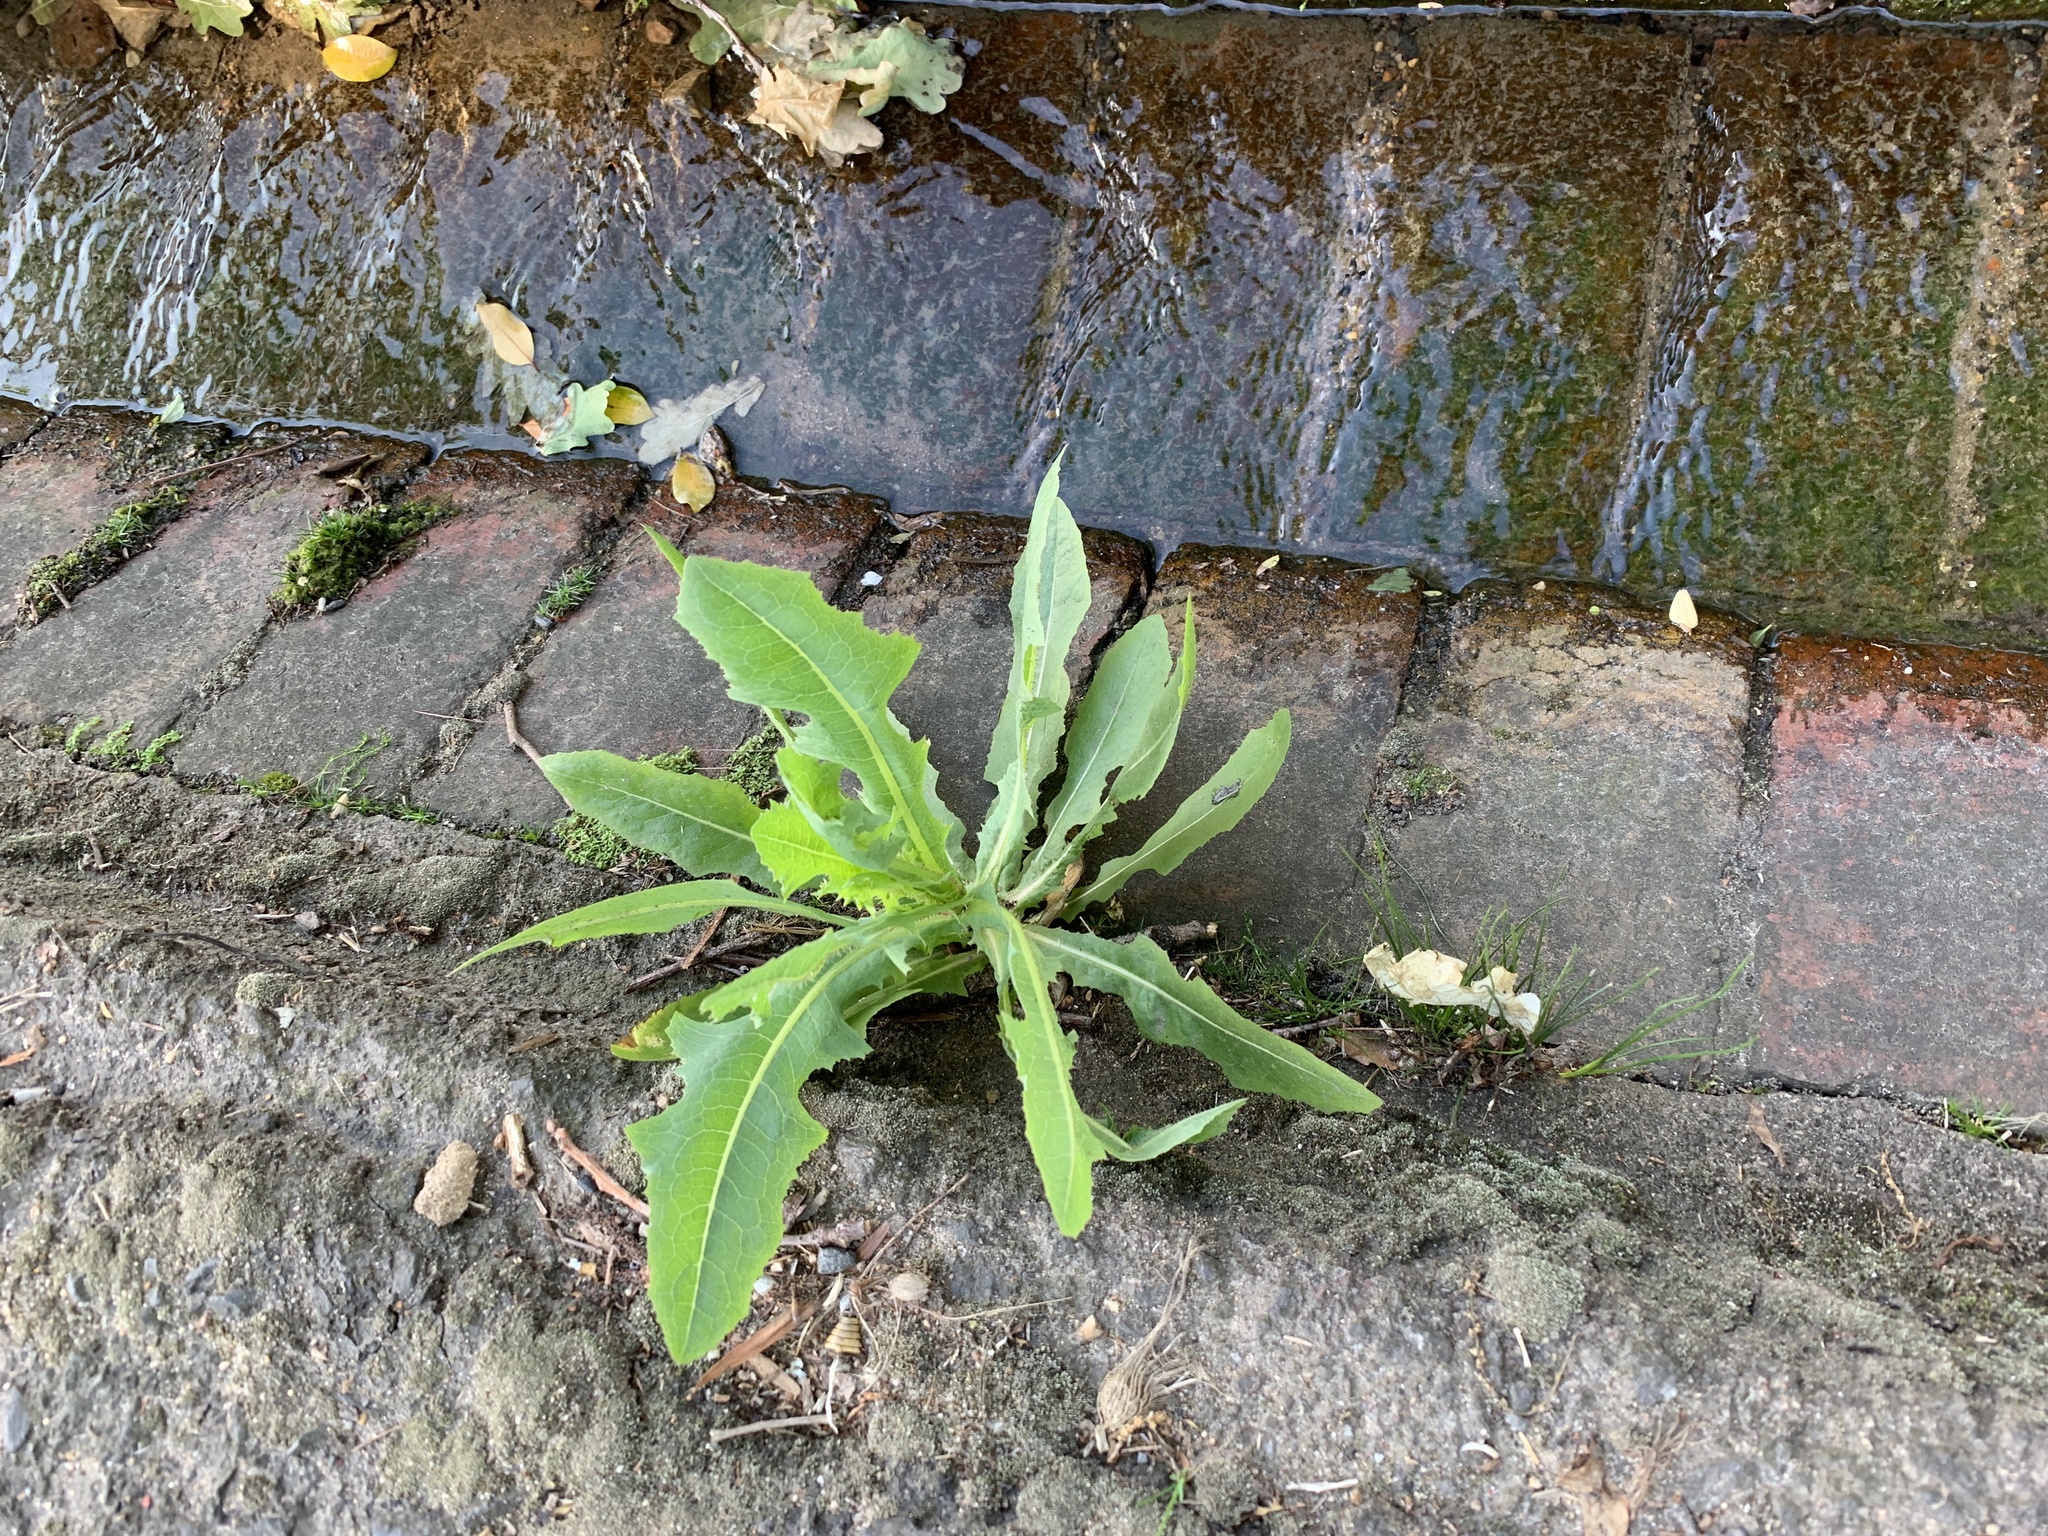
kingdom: Plantae
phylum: Tracheophyta
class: Magnoliopsida
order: Asterales
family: Asteraceae
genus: Lactuca
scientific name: Lactuca serriola
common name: Prickly lettuce
